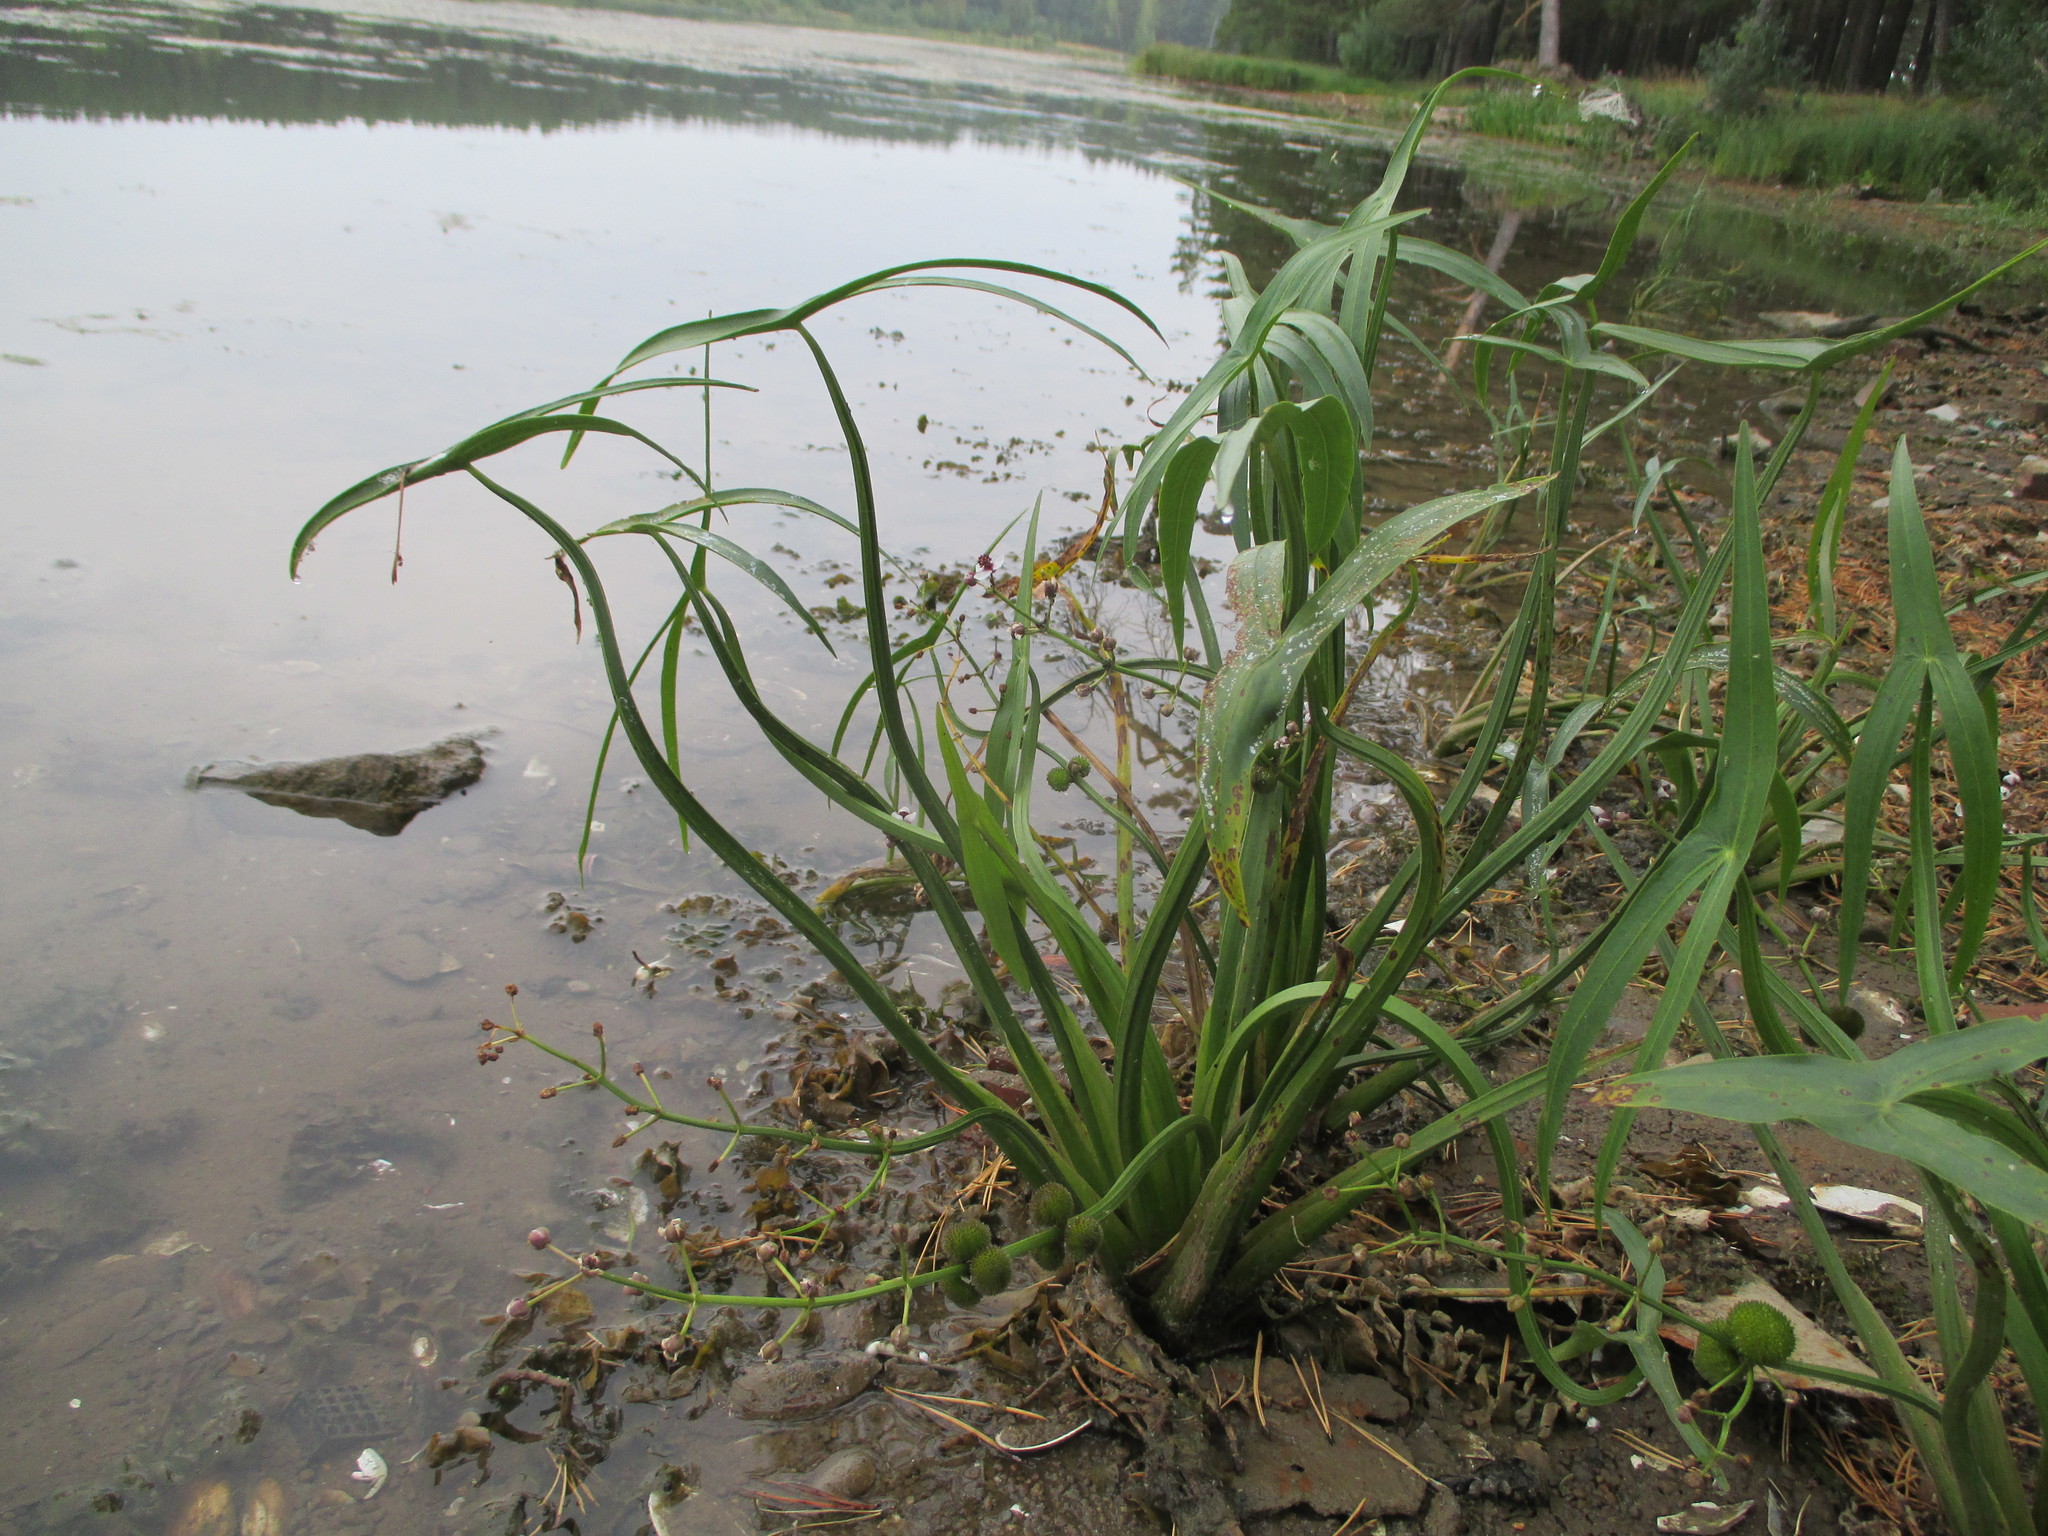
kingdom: Plantae
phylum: Tracheophyta
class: Liliopsida
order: Alismatales
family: Alismataceae
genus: Sagittaria
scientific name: Sagittaria sagittifolia
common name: Arrowhead
